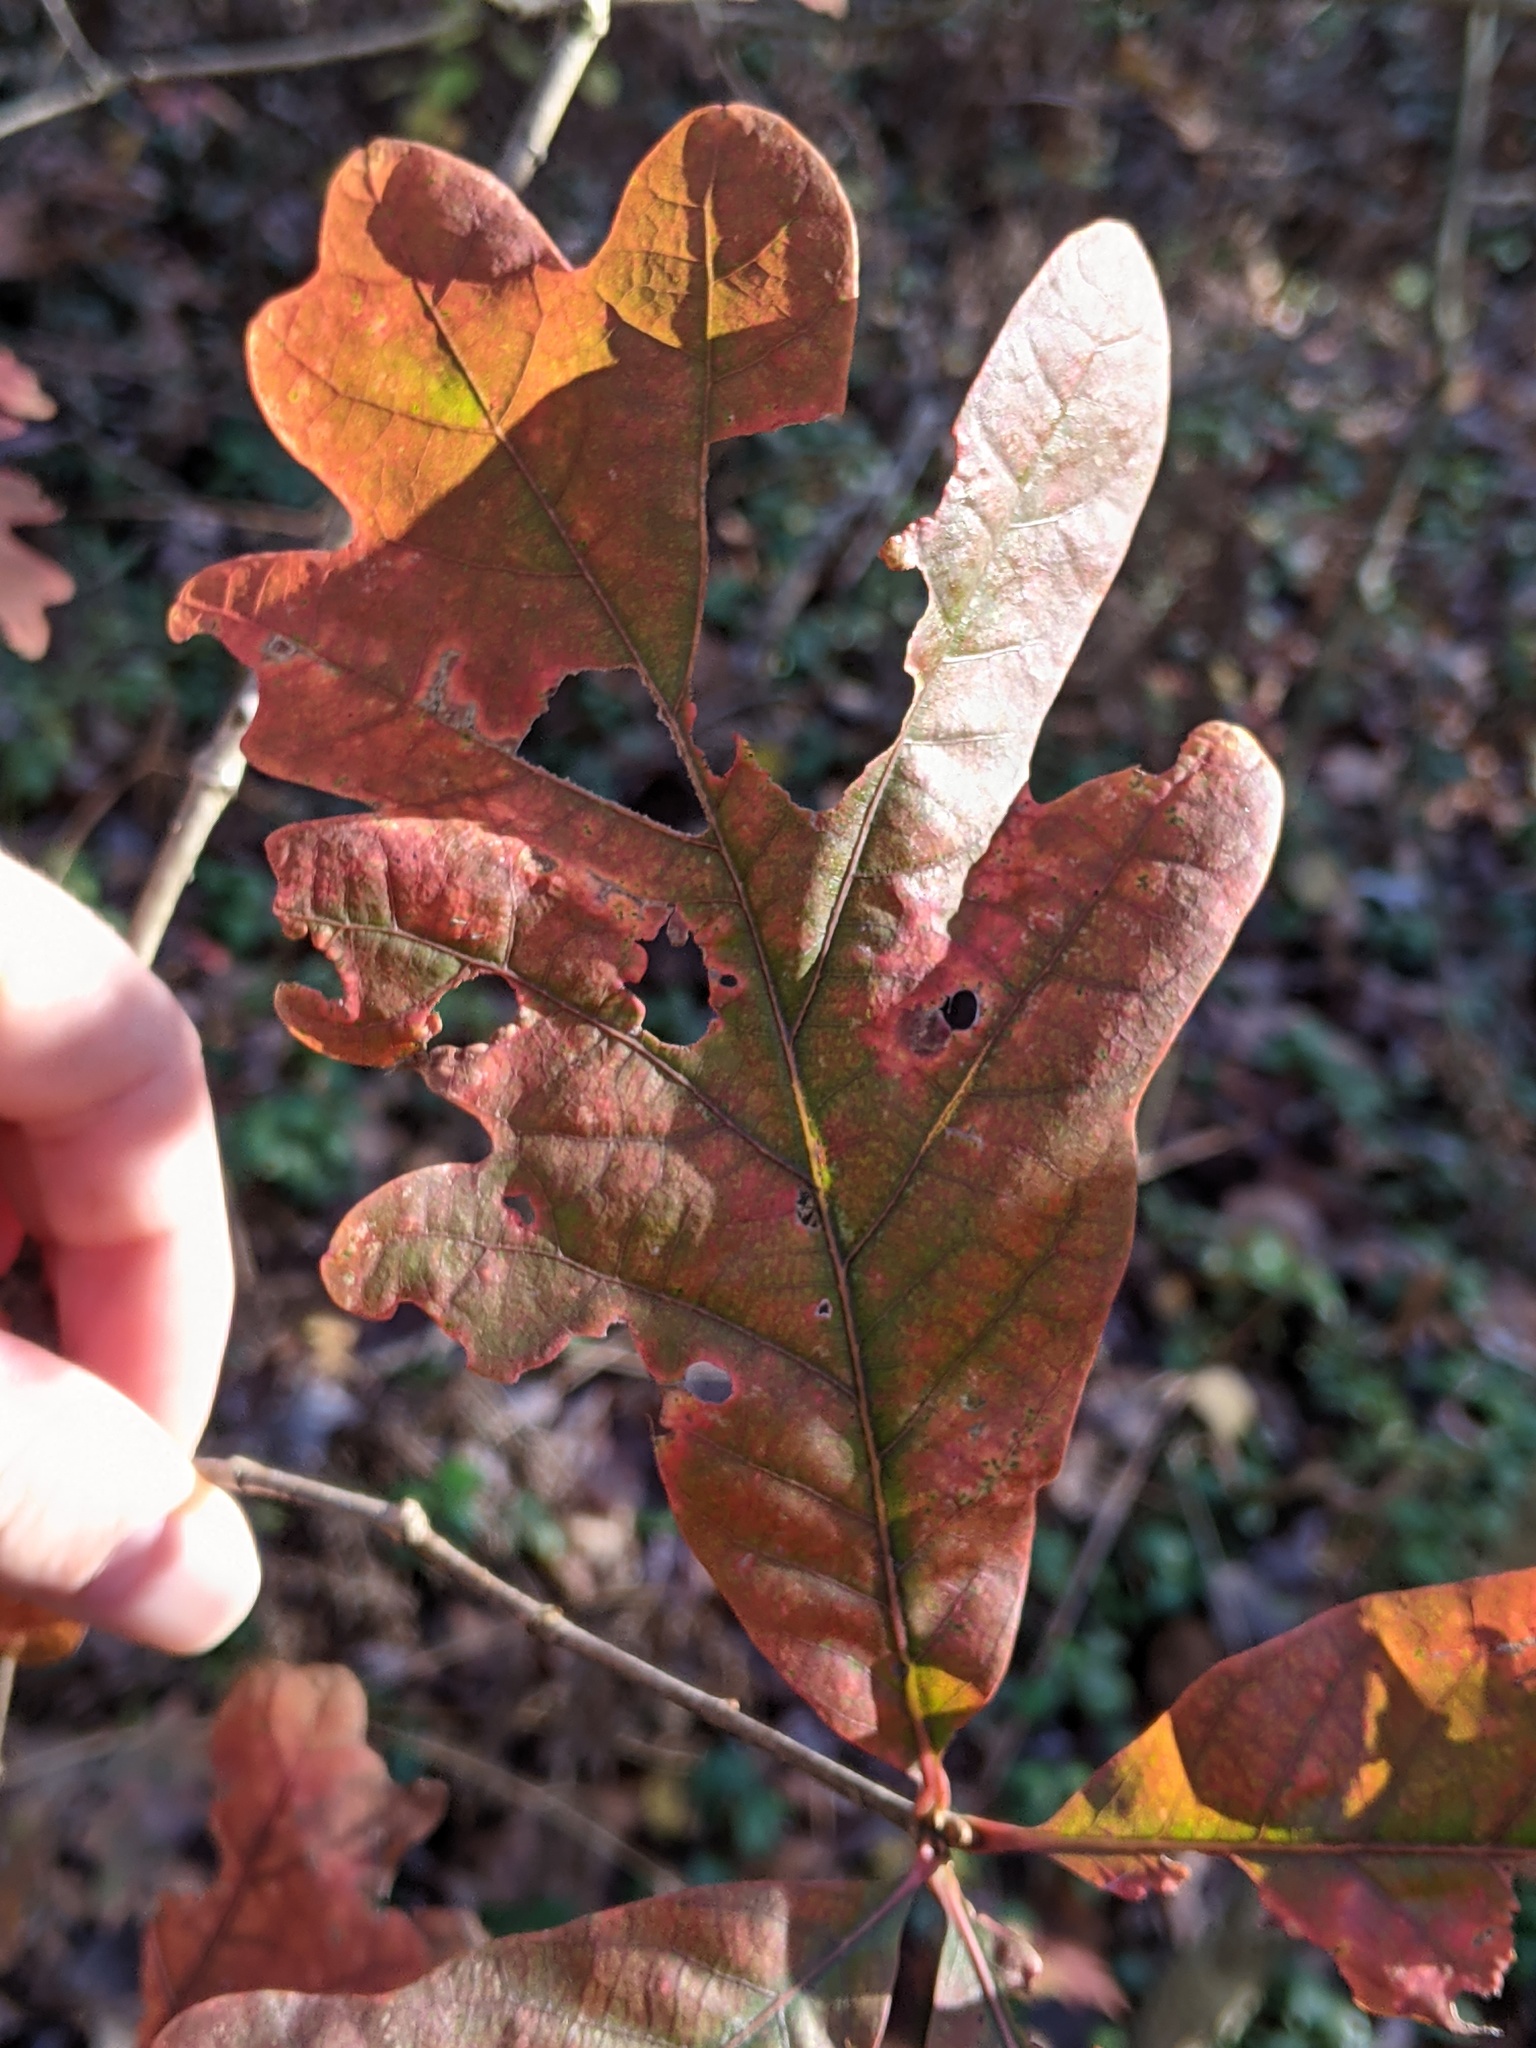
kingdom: Plantae
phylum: Tracheophyta
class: Magnoliopsida
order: Fagales
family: Fagaceae
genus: Quercus
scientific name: Quercus alba
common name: White oak
